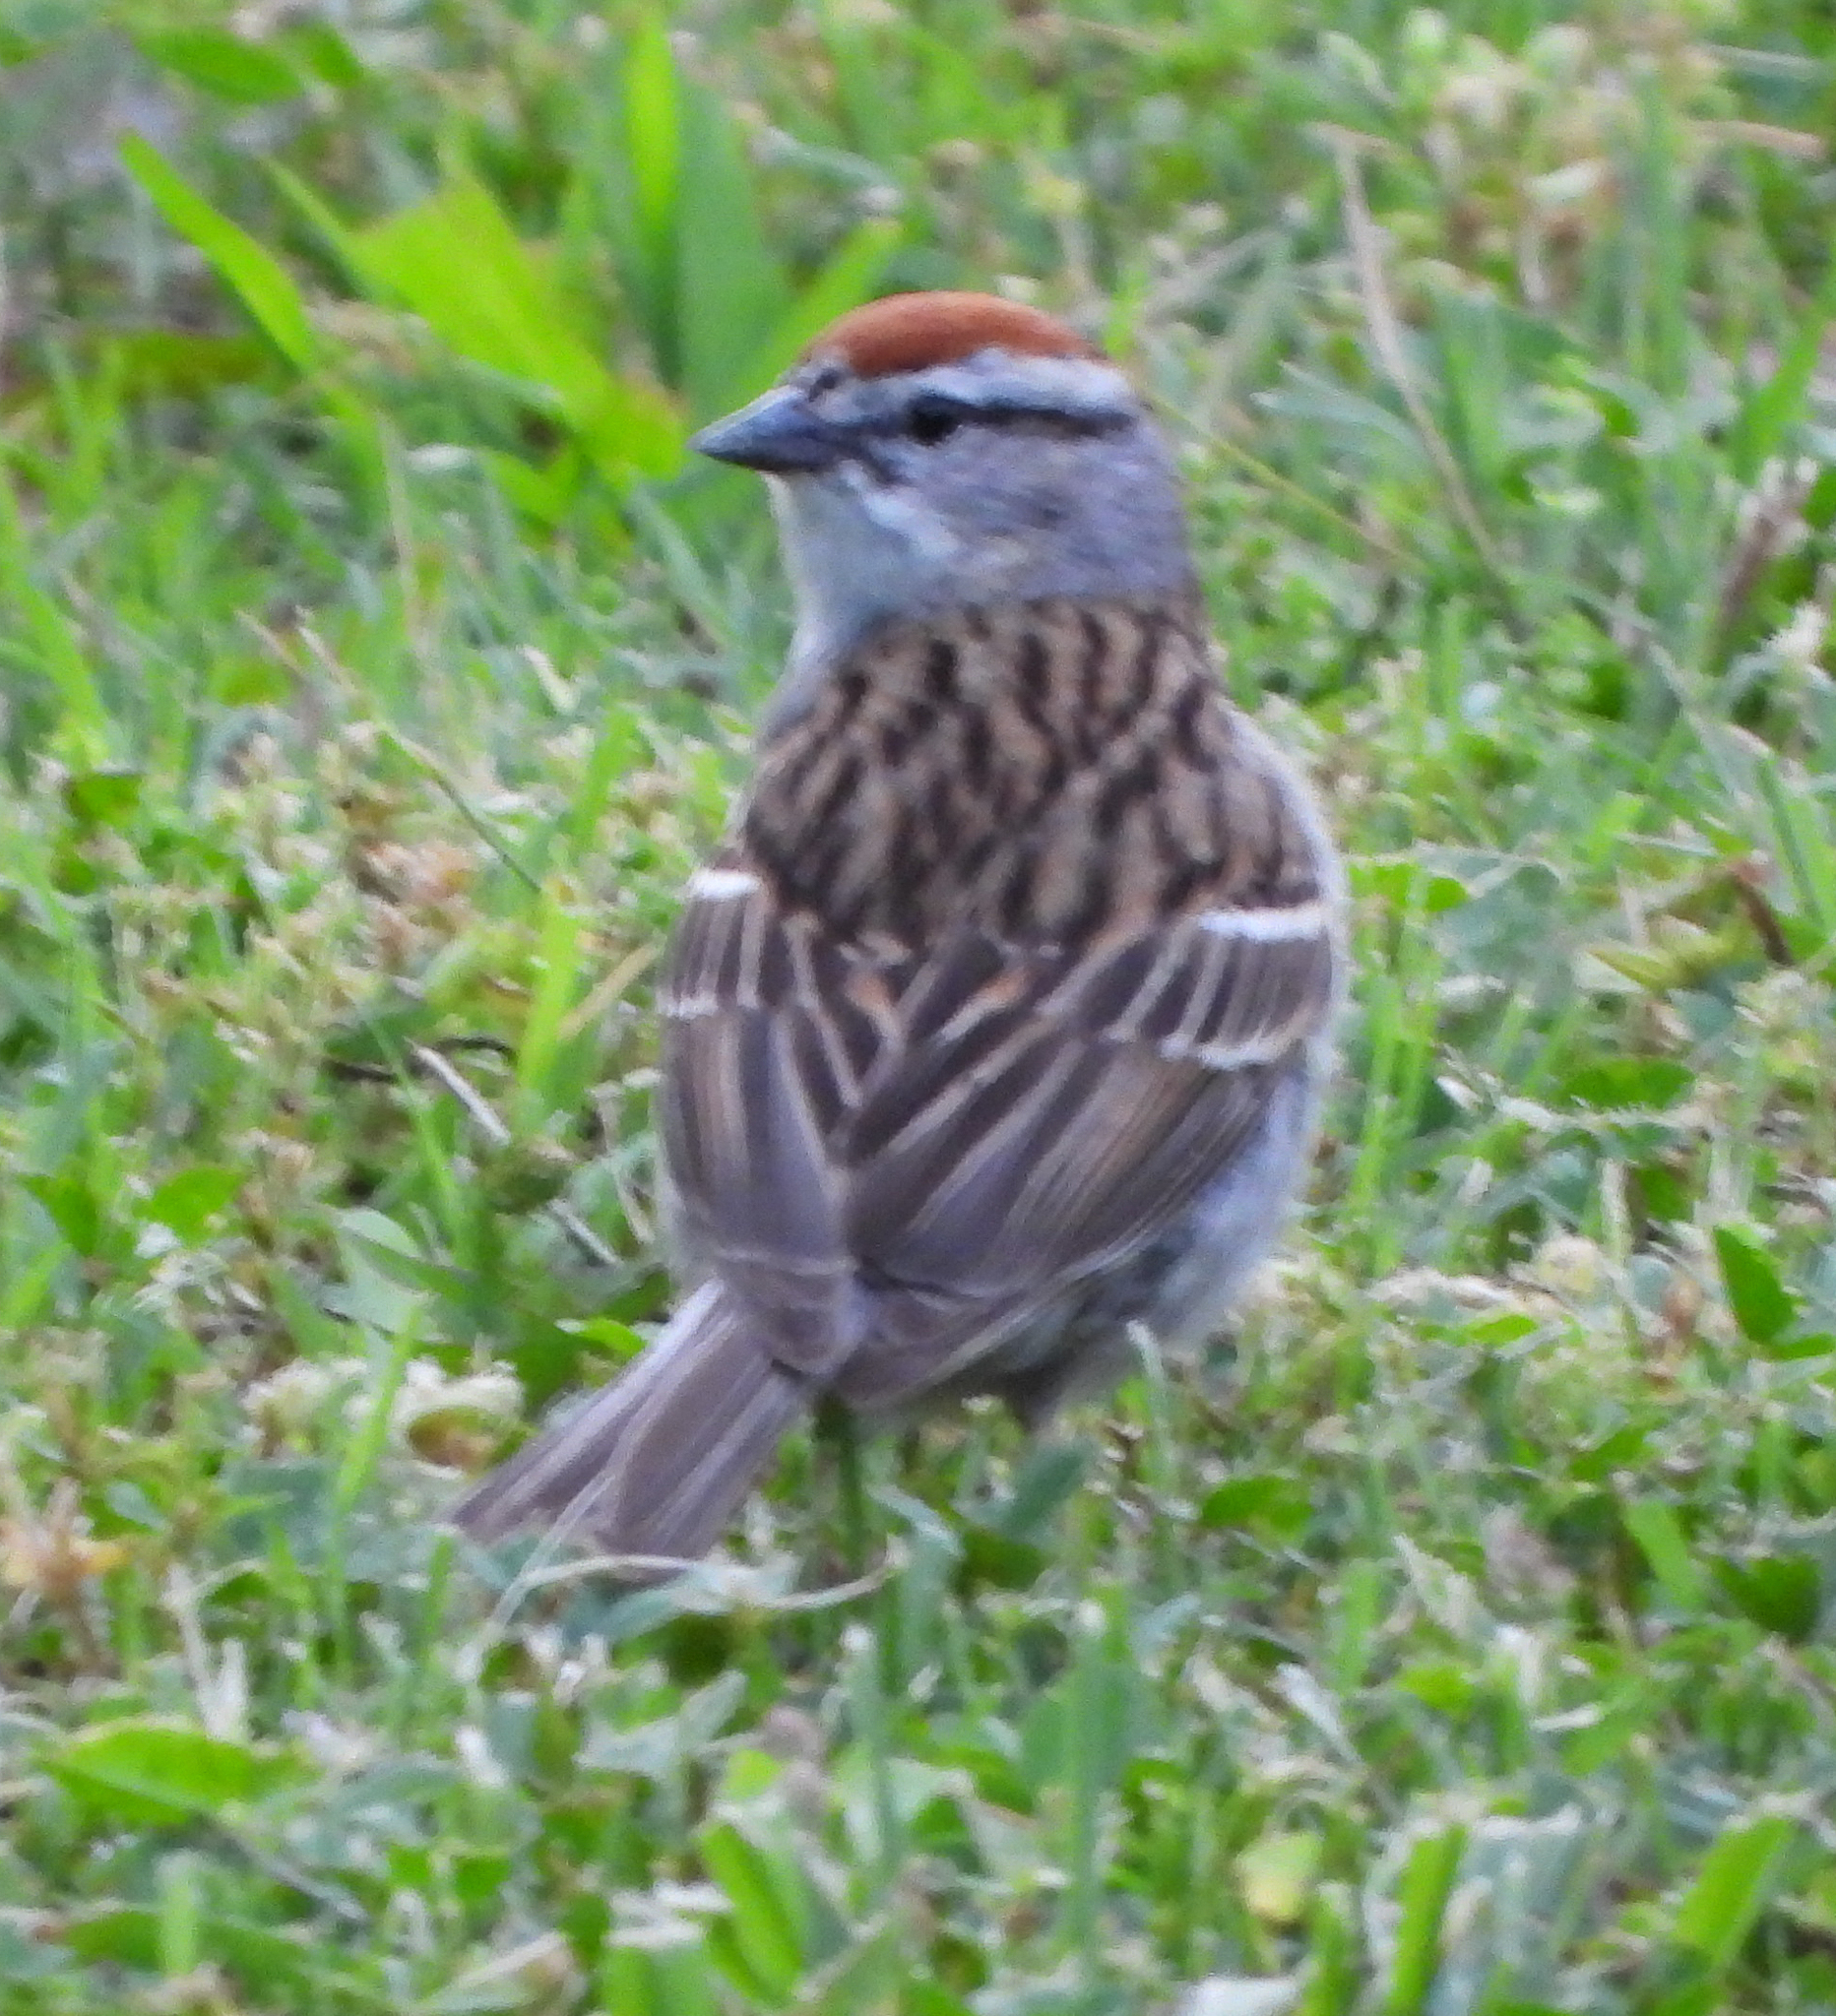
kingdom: Animalia
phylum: Chordata
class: Aves
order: Passeriformes
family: Passerellidae
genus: Spizella
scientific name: Spizella passerina
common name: Chipping sparrow
